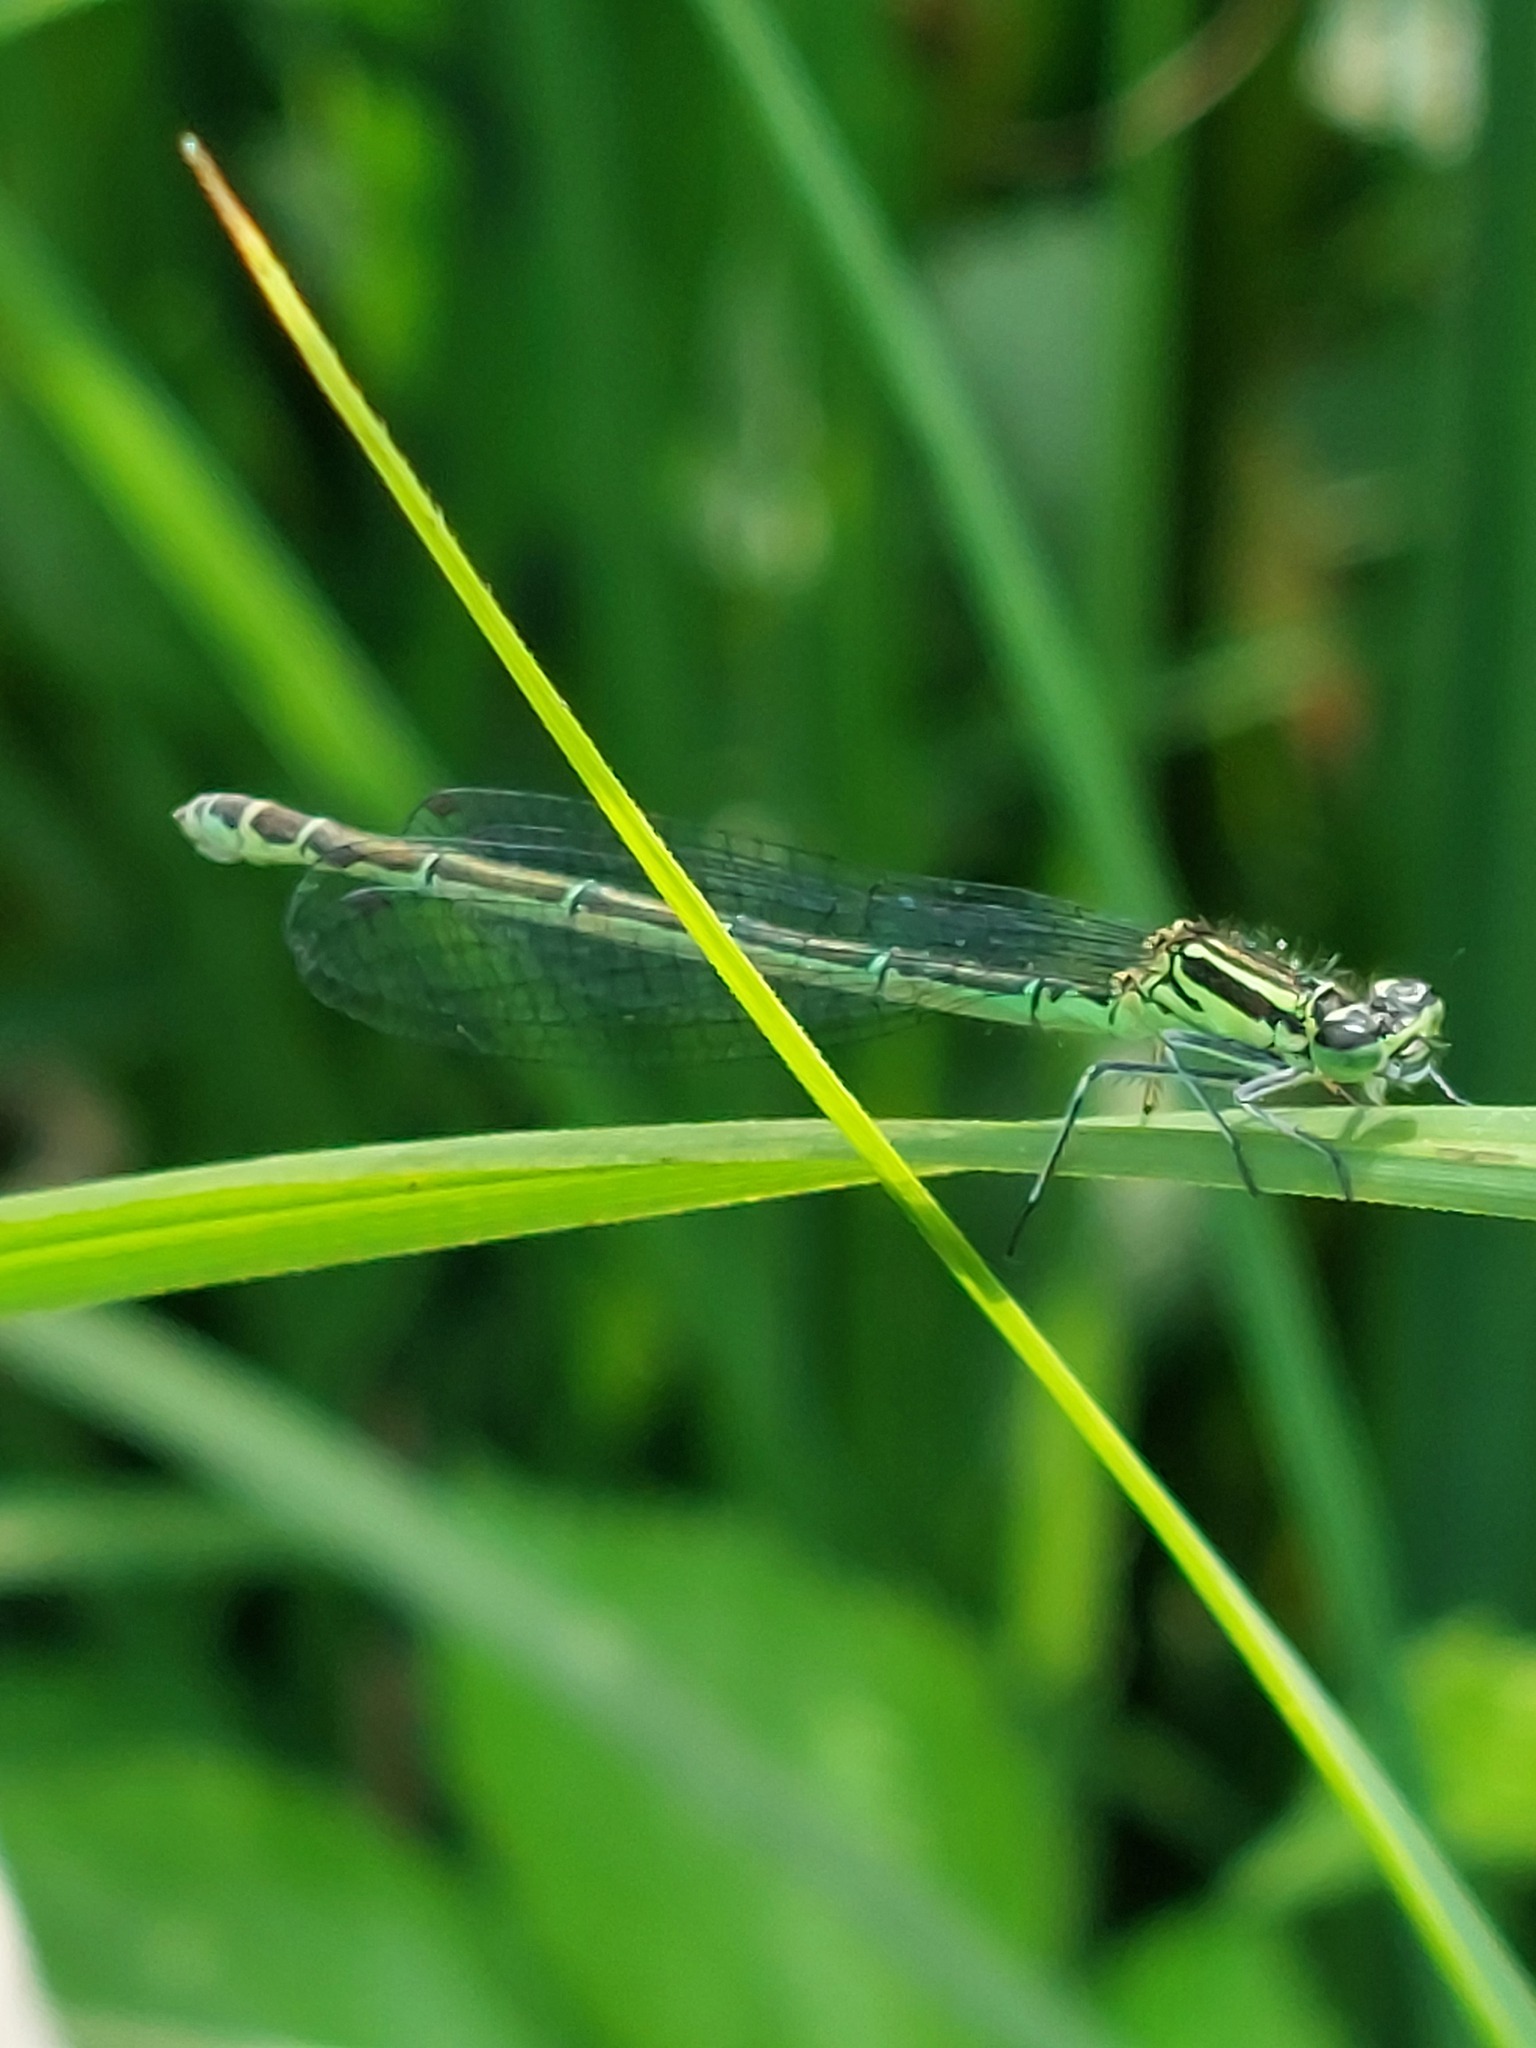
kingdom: Animalia
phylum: Arthropoda
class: Insecta
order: Odonata
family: Coenagrionidae
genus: Coenagrion
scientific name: Coenagrion puella
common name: Azure damselfly
